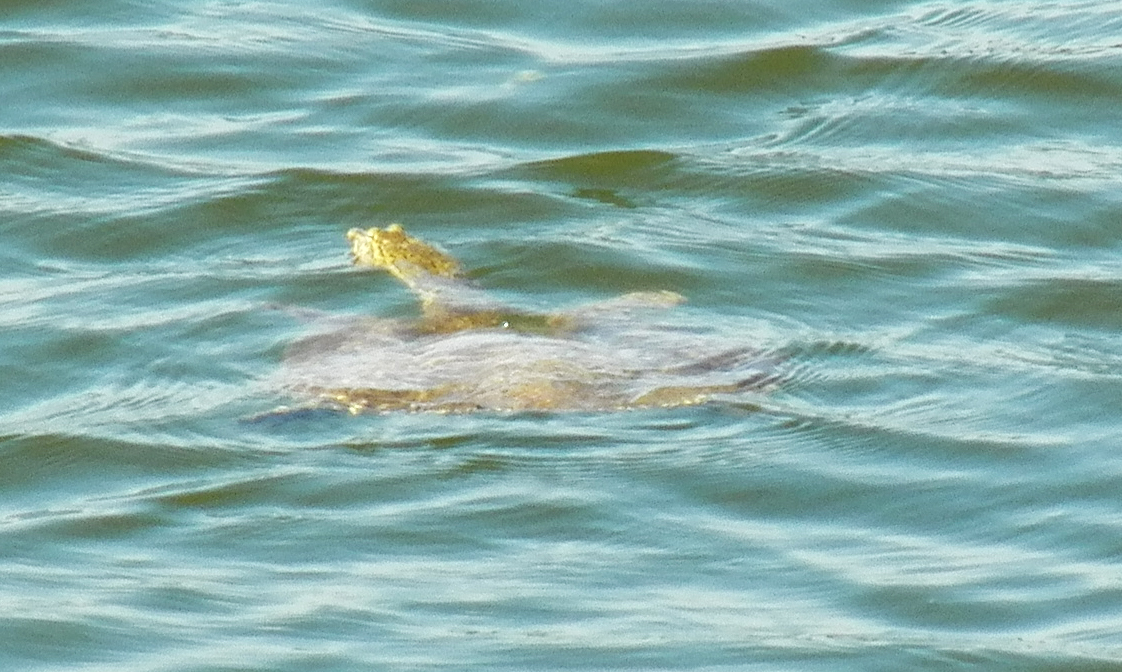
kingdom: Animalia
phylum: Chordata
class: Testudines
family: Trionychidae
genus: Apalone
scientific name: Apalone spinifera
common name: Spiny softshell turtle
